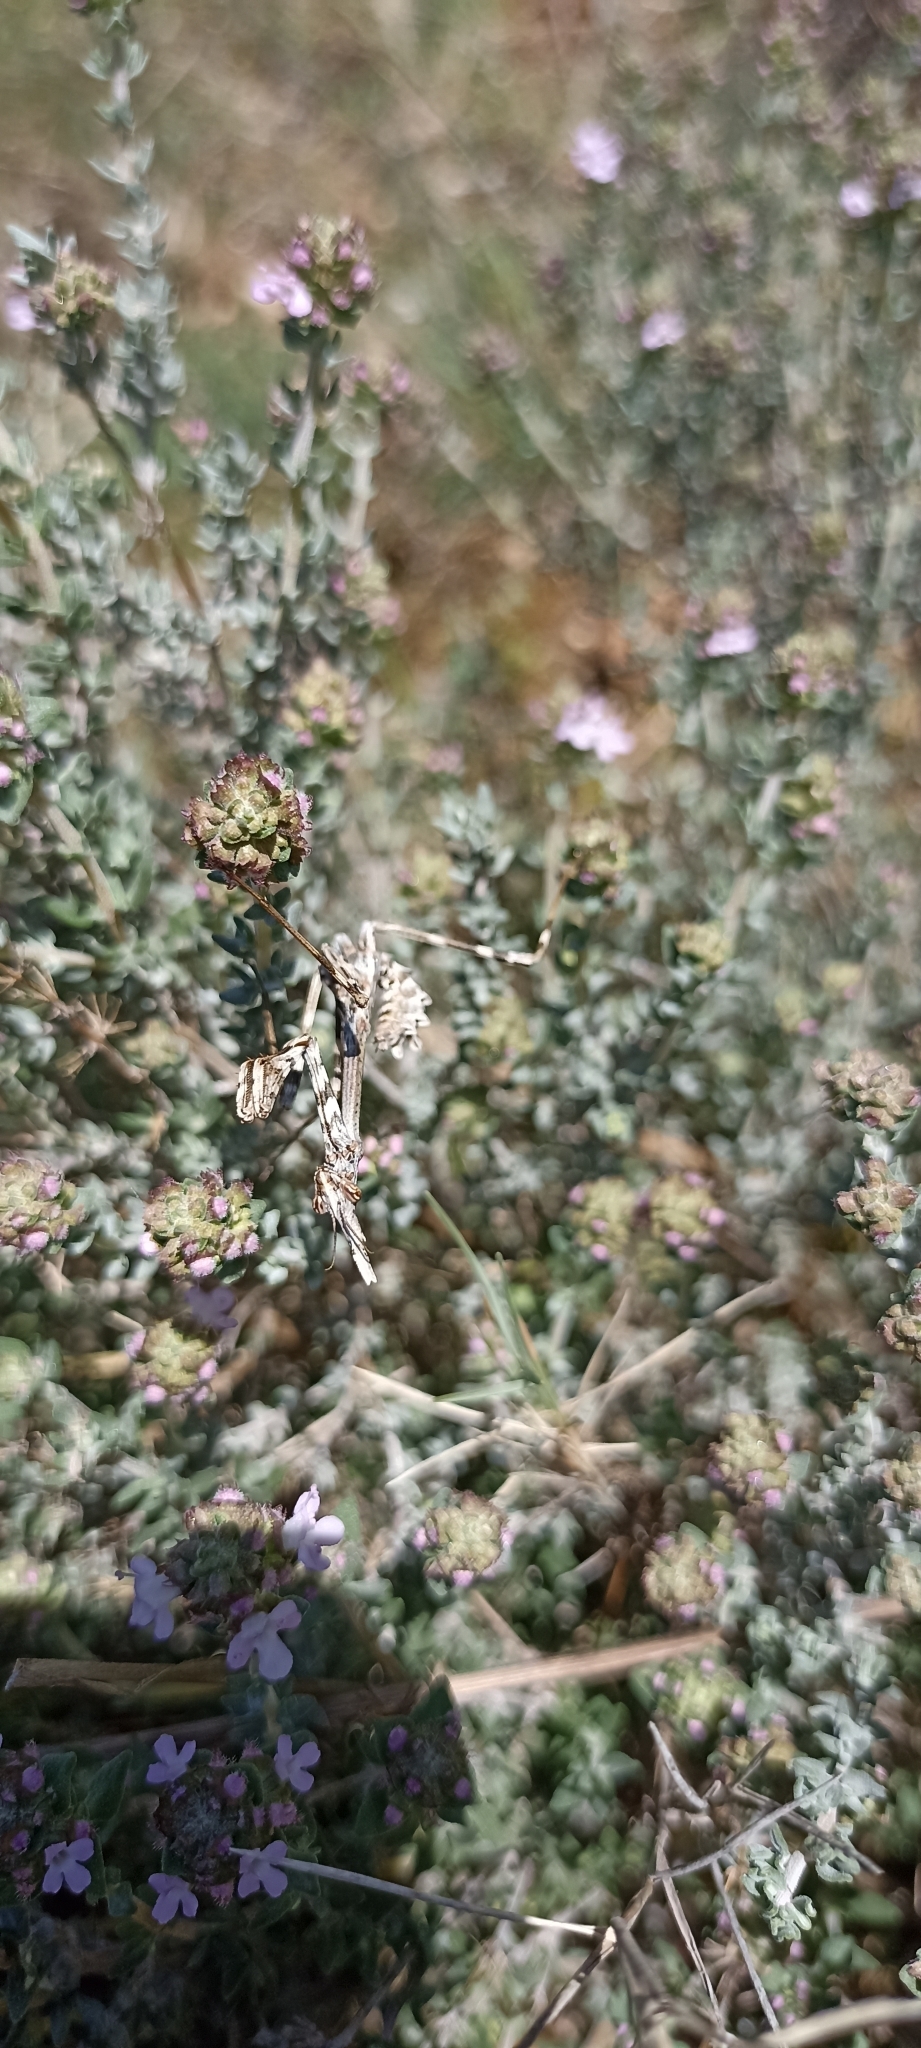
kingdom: Animalia
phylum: Arthropoda
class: Insecta
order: Mantodea
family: Empusidae
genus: Empusa
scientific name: Empusa pennata
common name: Conehead mantis
